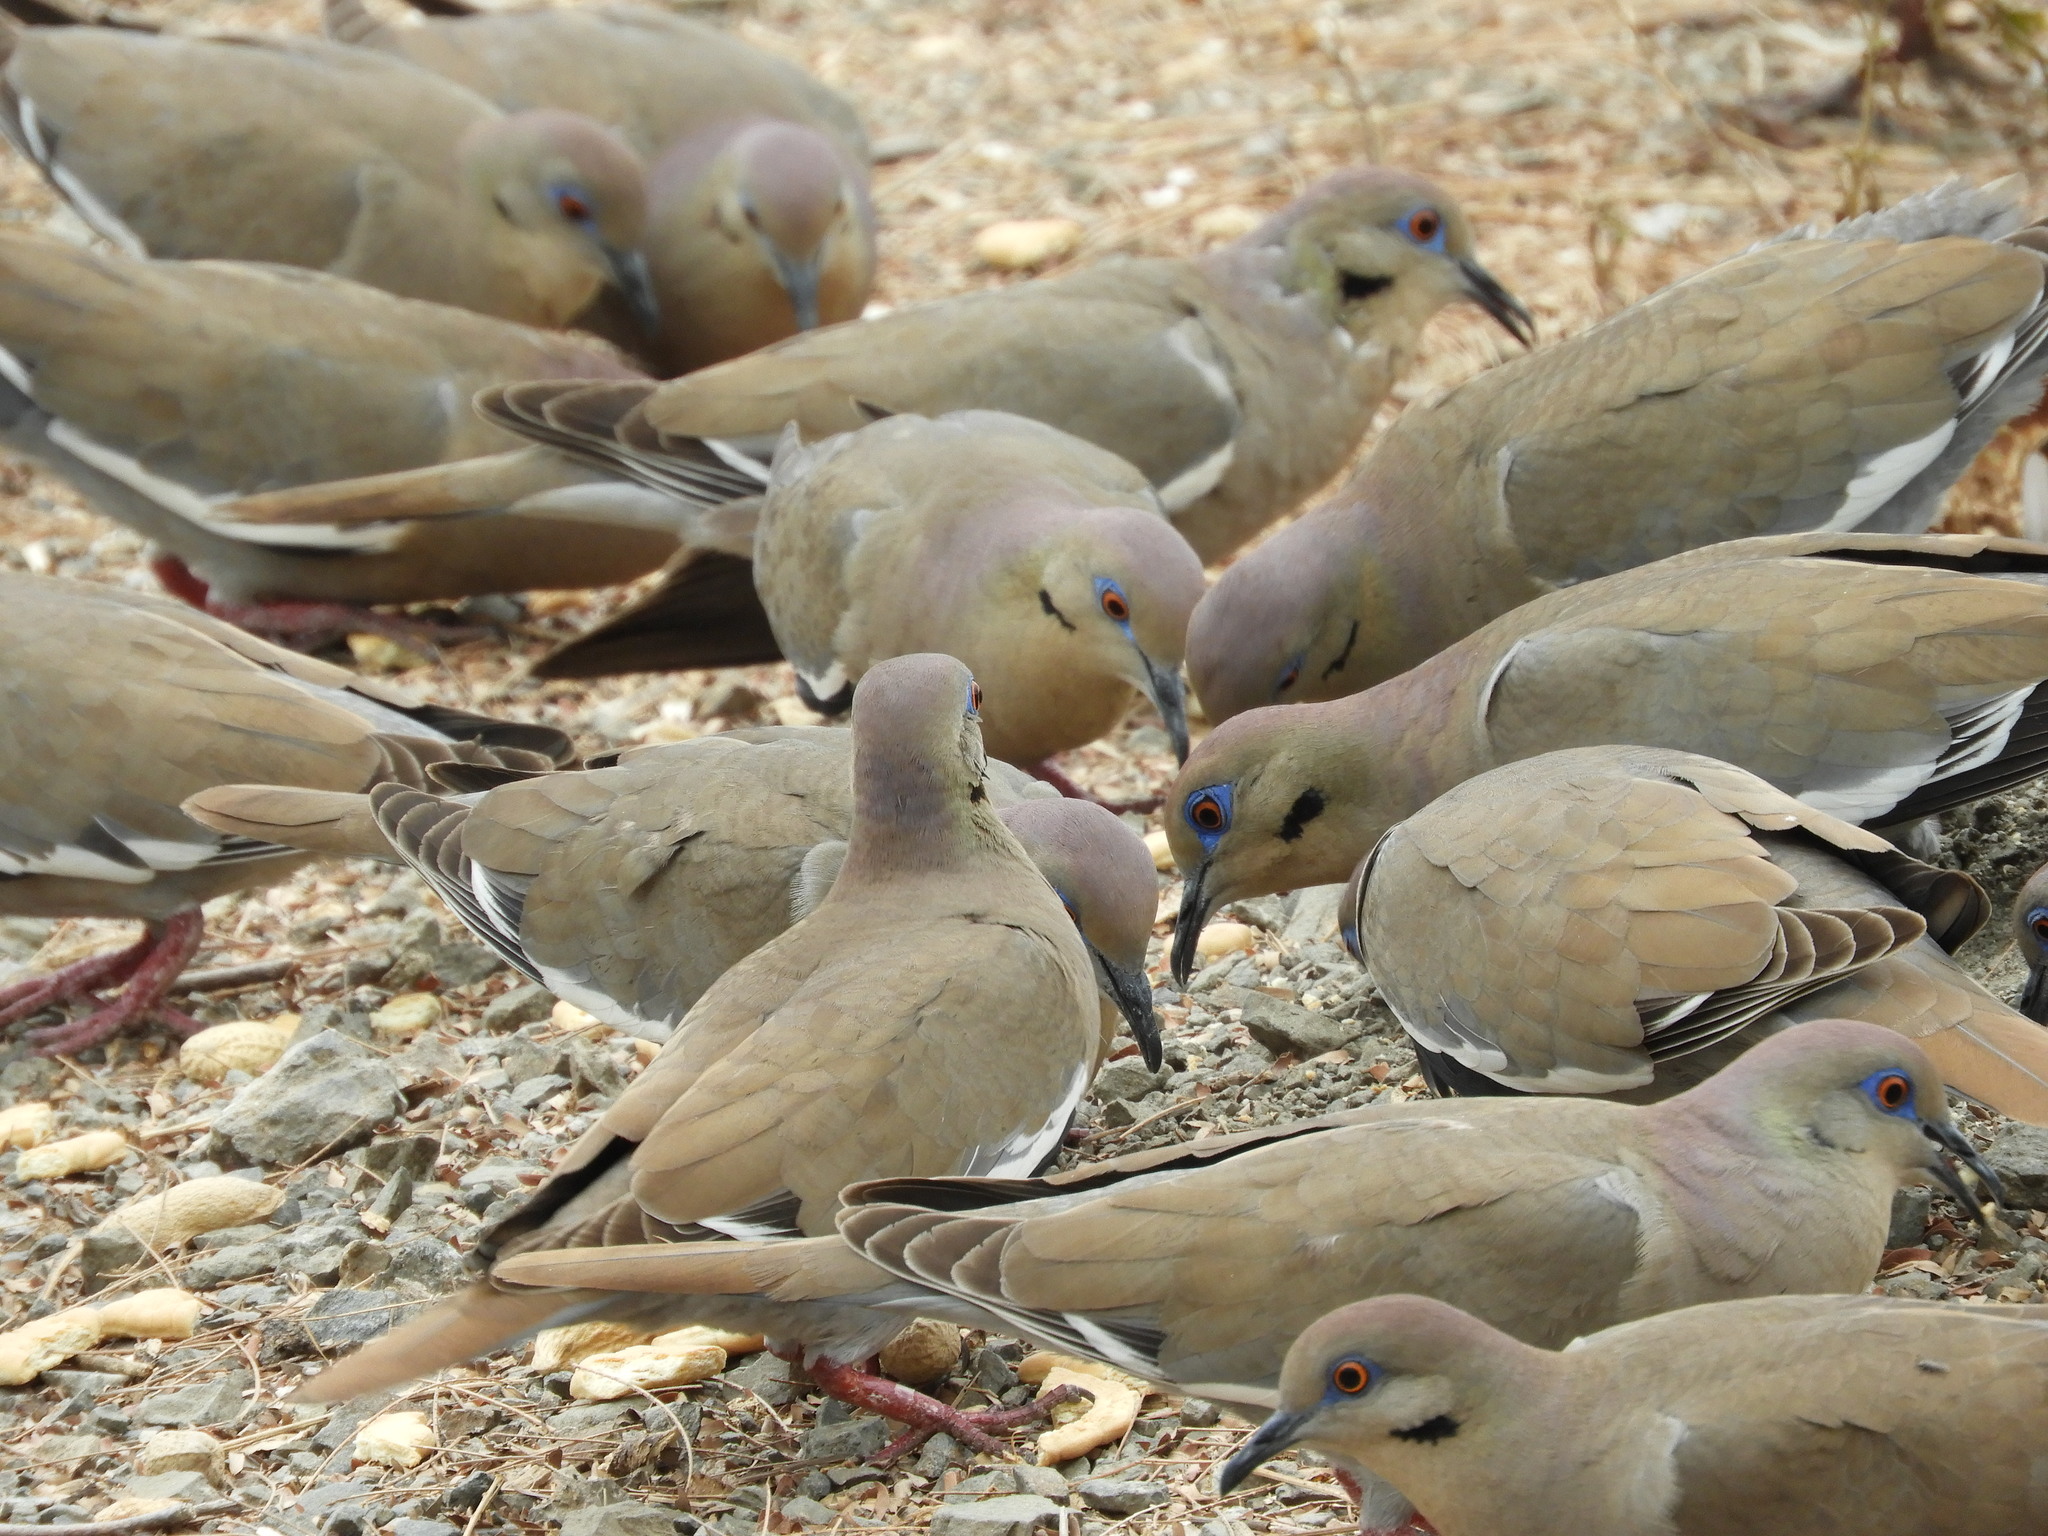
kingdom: Animalia
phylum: Chordata
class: Aves
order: Columbiformes
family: Columbidae
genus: Zenaida
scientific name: Zenaida asiatica
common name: White-winged dove
